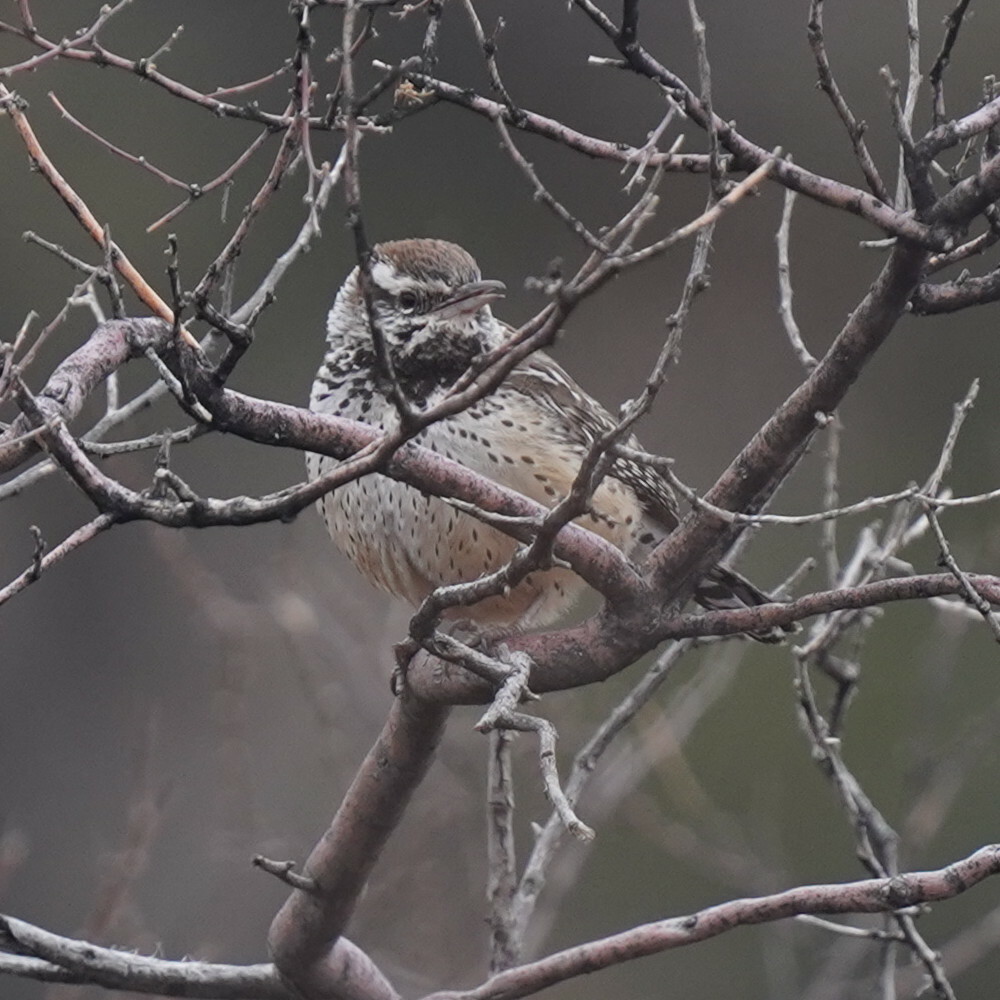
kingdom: Animalia
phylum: Chordata
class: Aves
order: Passeriformes
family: Troglodytidae
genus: Campylorhynchus
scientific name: Campylorhynchus brunneicapillus
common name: Cactus wren
